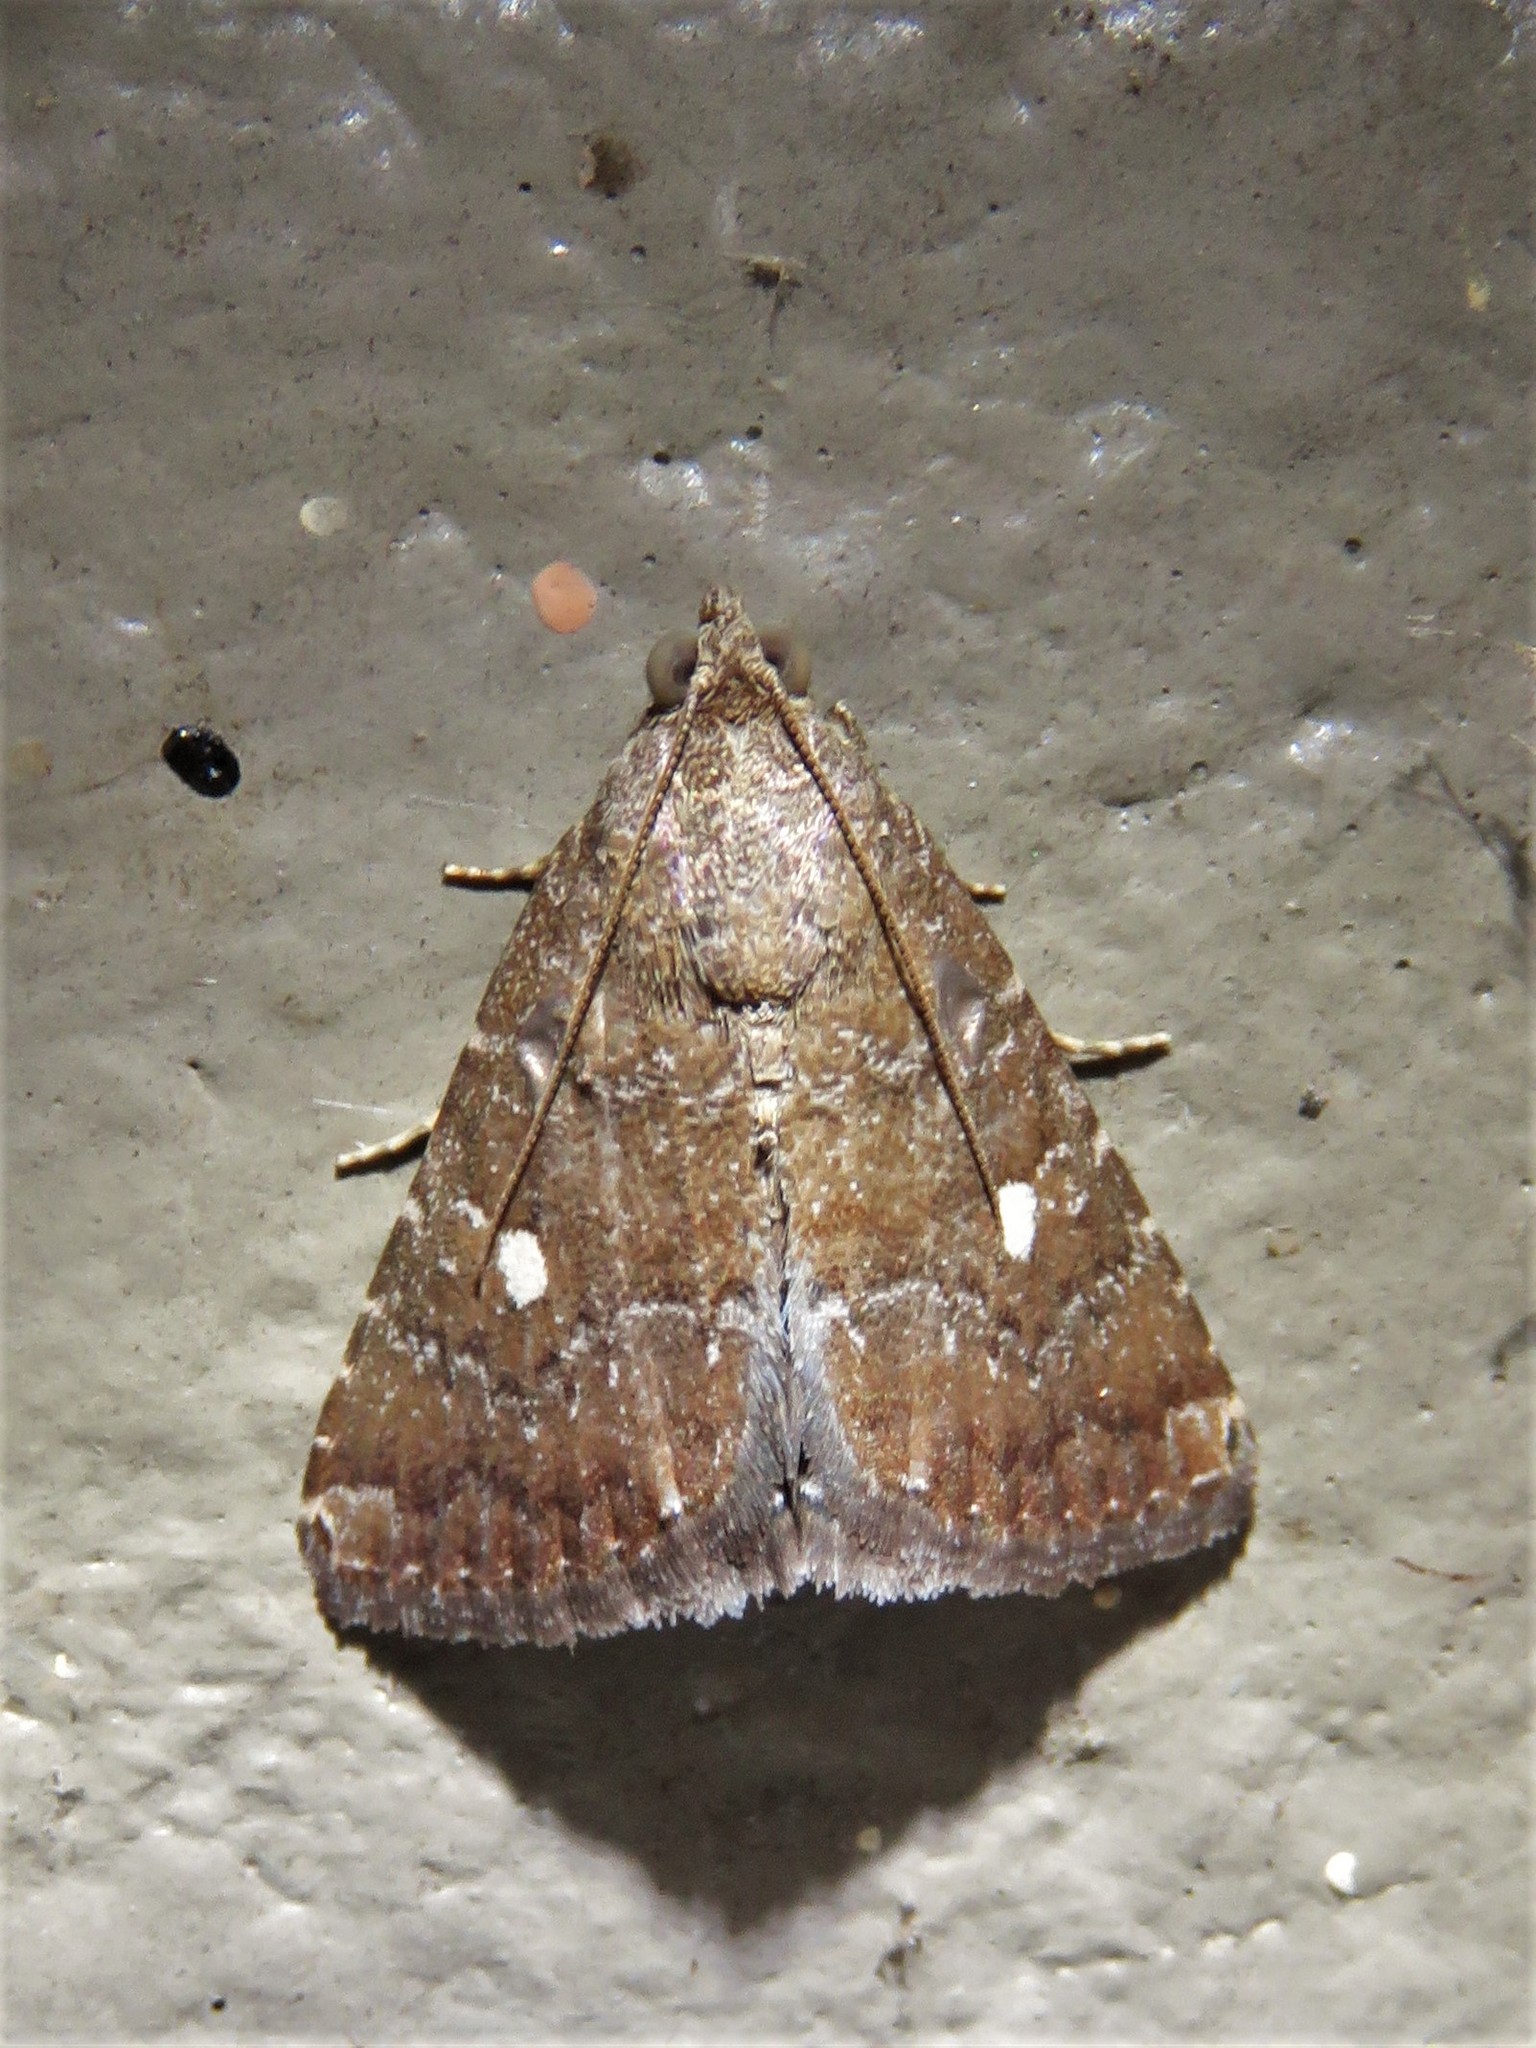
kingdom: Animalia
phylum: Arthropoda
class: Insecta
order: Lepidoptera
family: Noctuidae
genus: Amyna
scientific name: Amyna stricta
